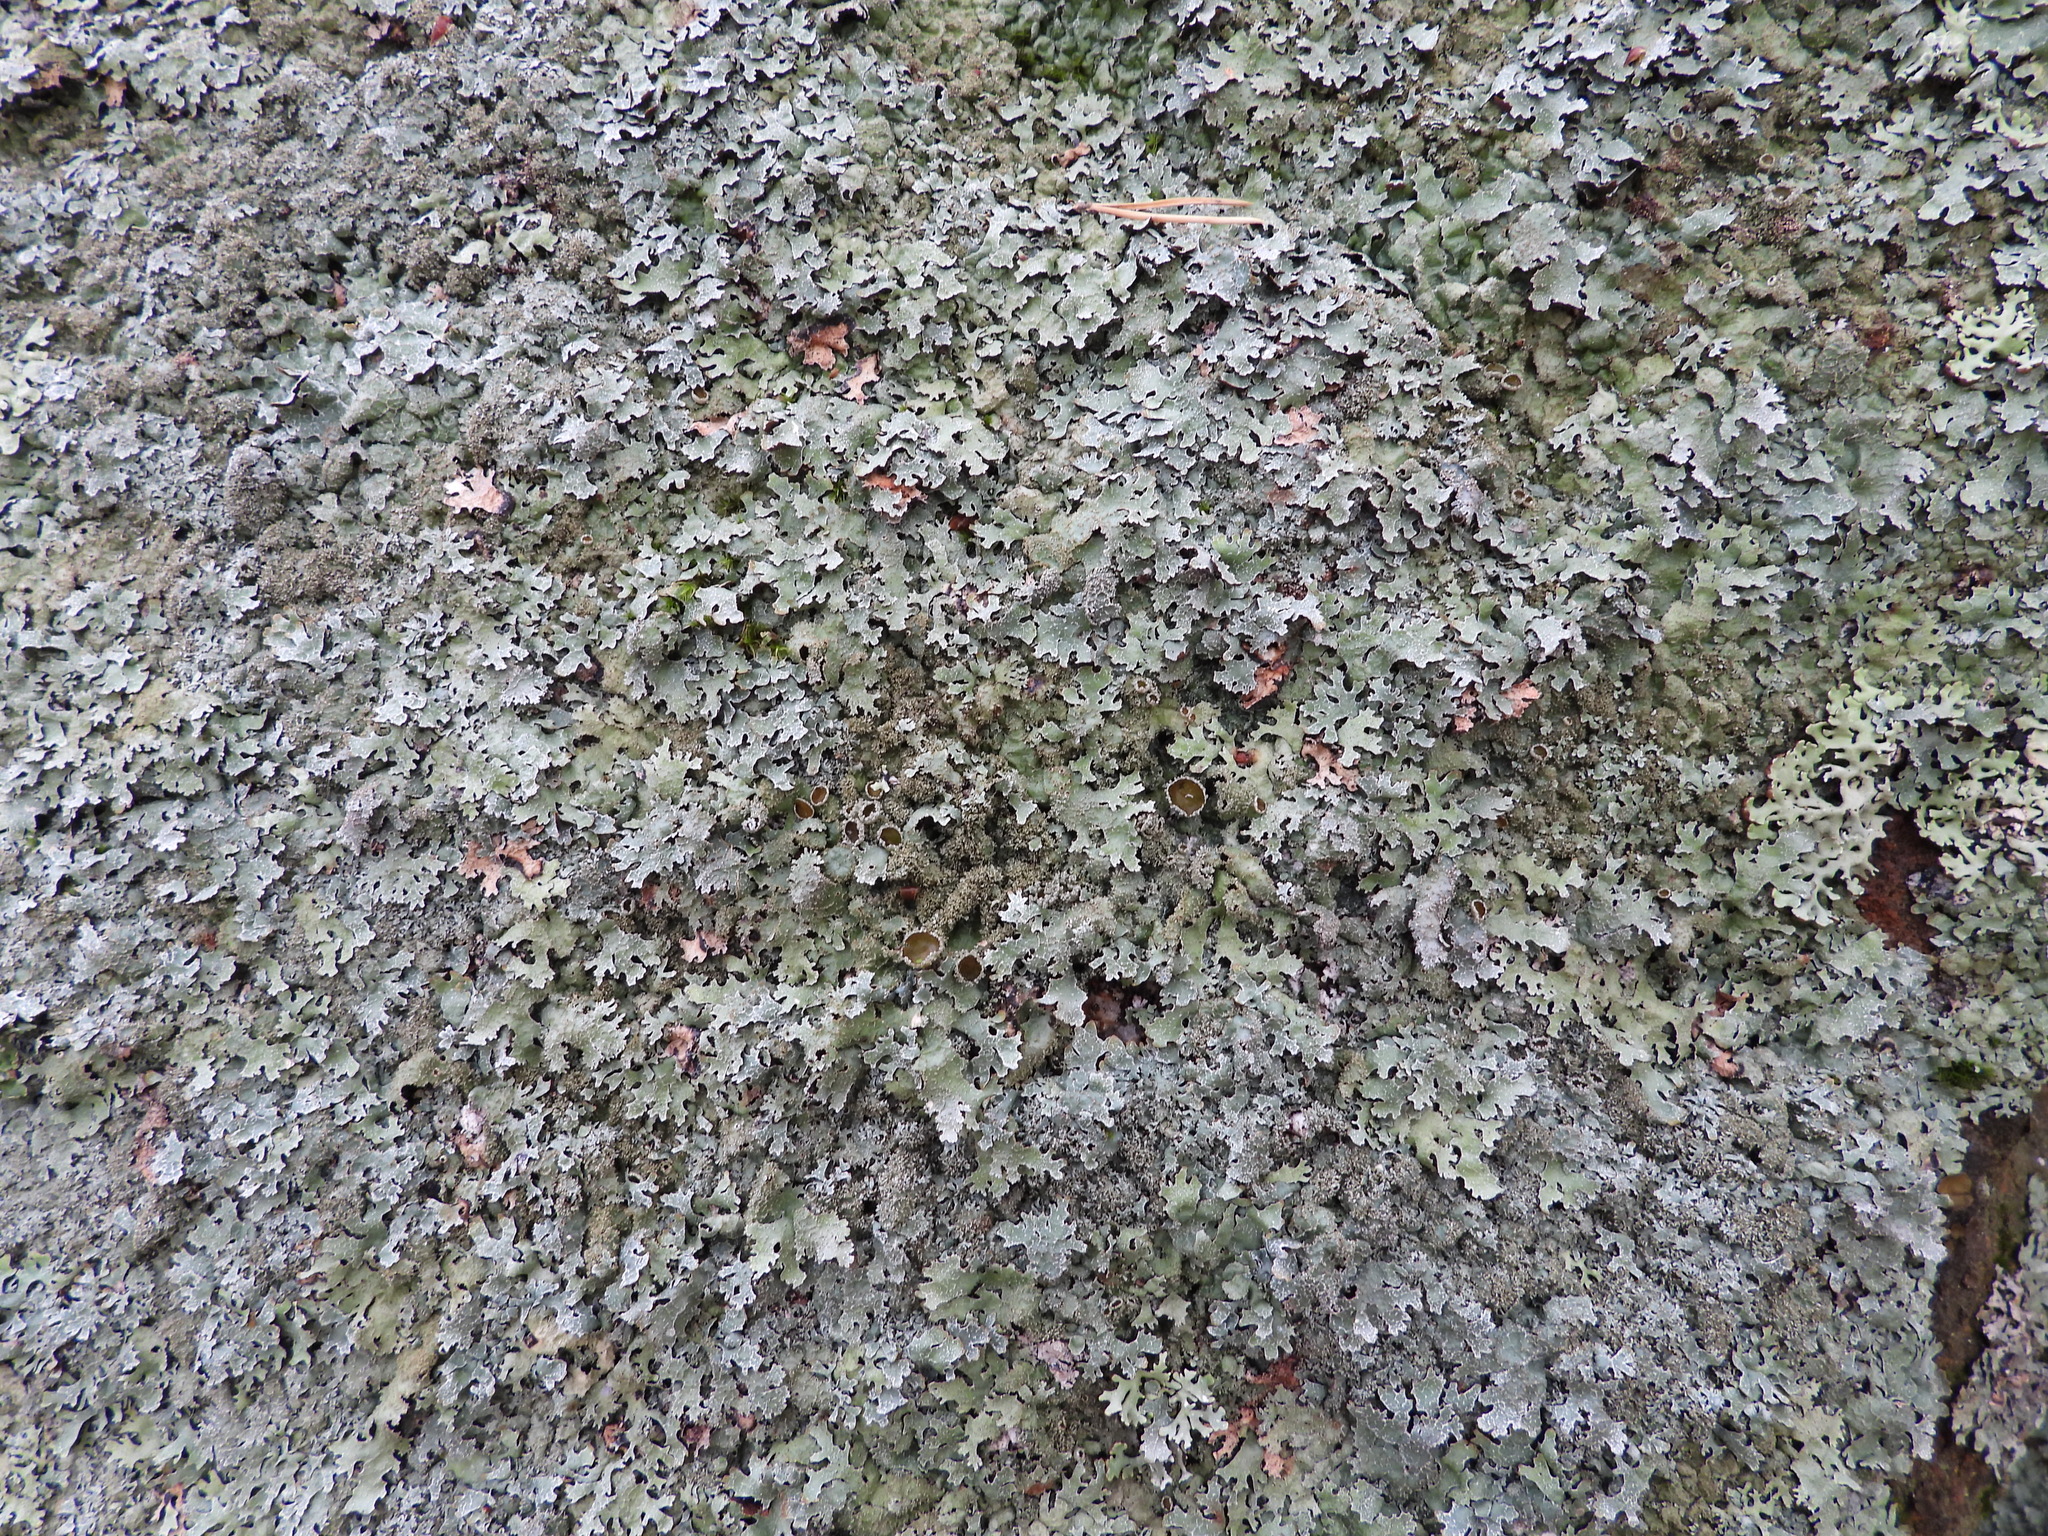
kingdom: Fungi
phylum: Ascomycota
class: Lecanoromycetes
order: Lecanorales
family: Parmeliaceae
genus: Parmelia
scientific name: Parmelia saxatilis
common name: Salted shield lichen
